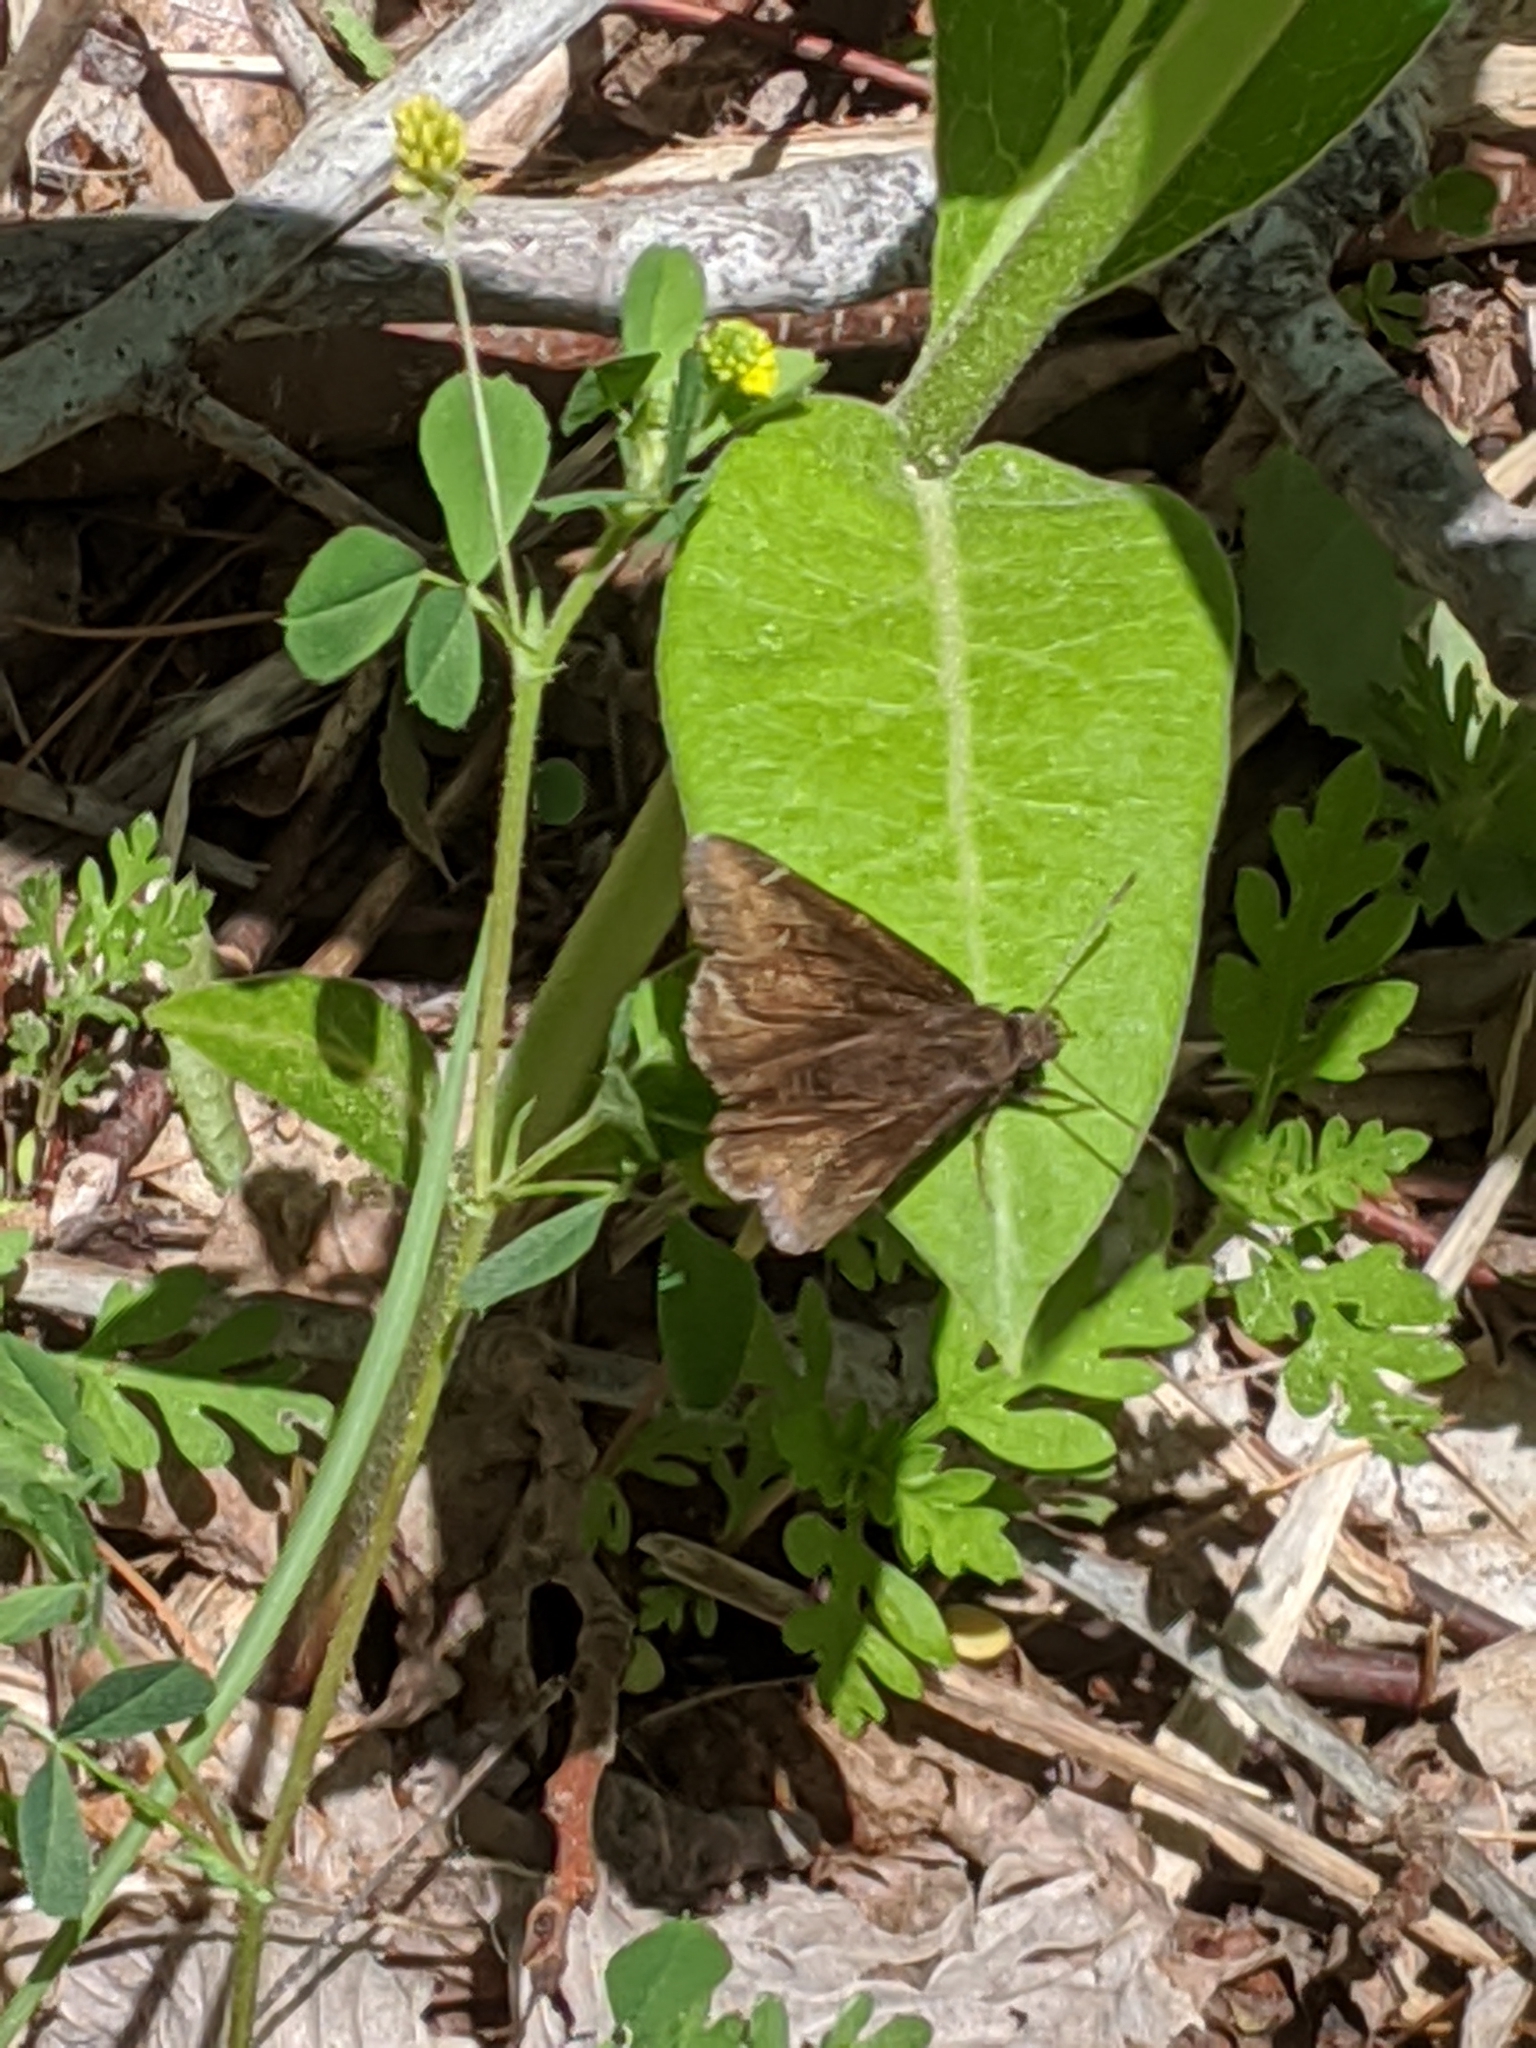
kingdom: Animalia
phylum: Arthropoda
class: Insecta
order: Lepidoptera
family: Hesperiidae
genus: Thorybes
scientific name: Thorybes pylades
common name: Northern cloudywing
